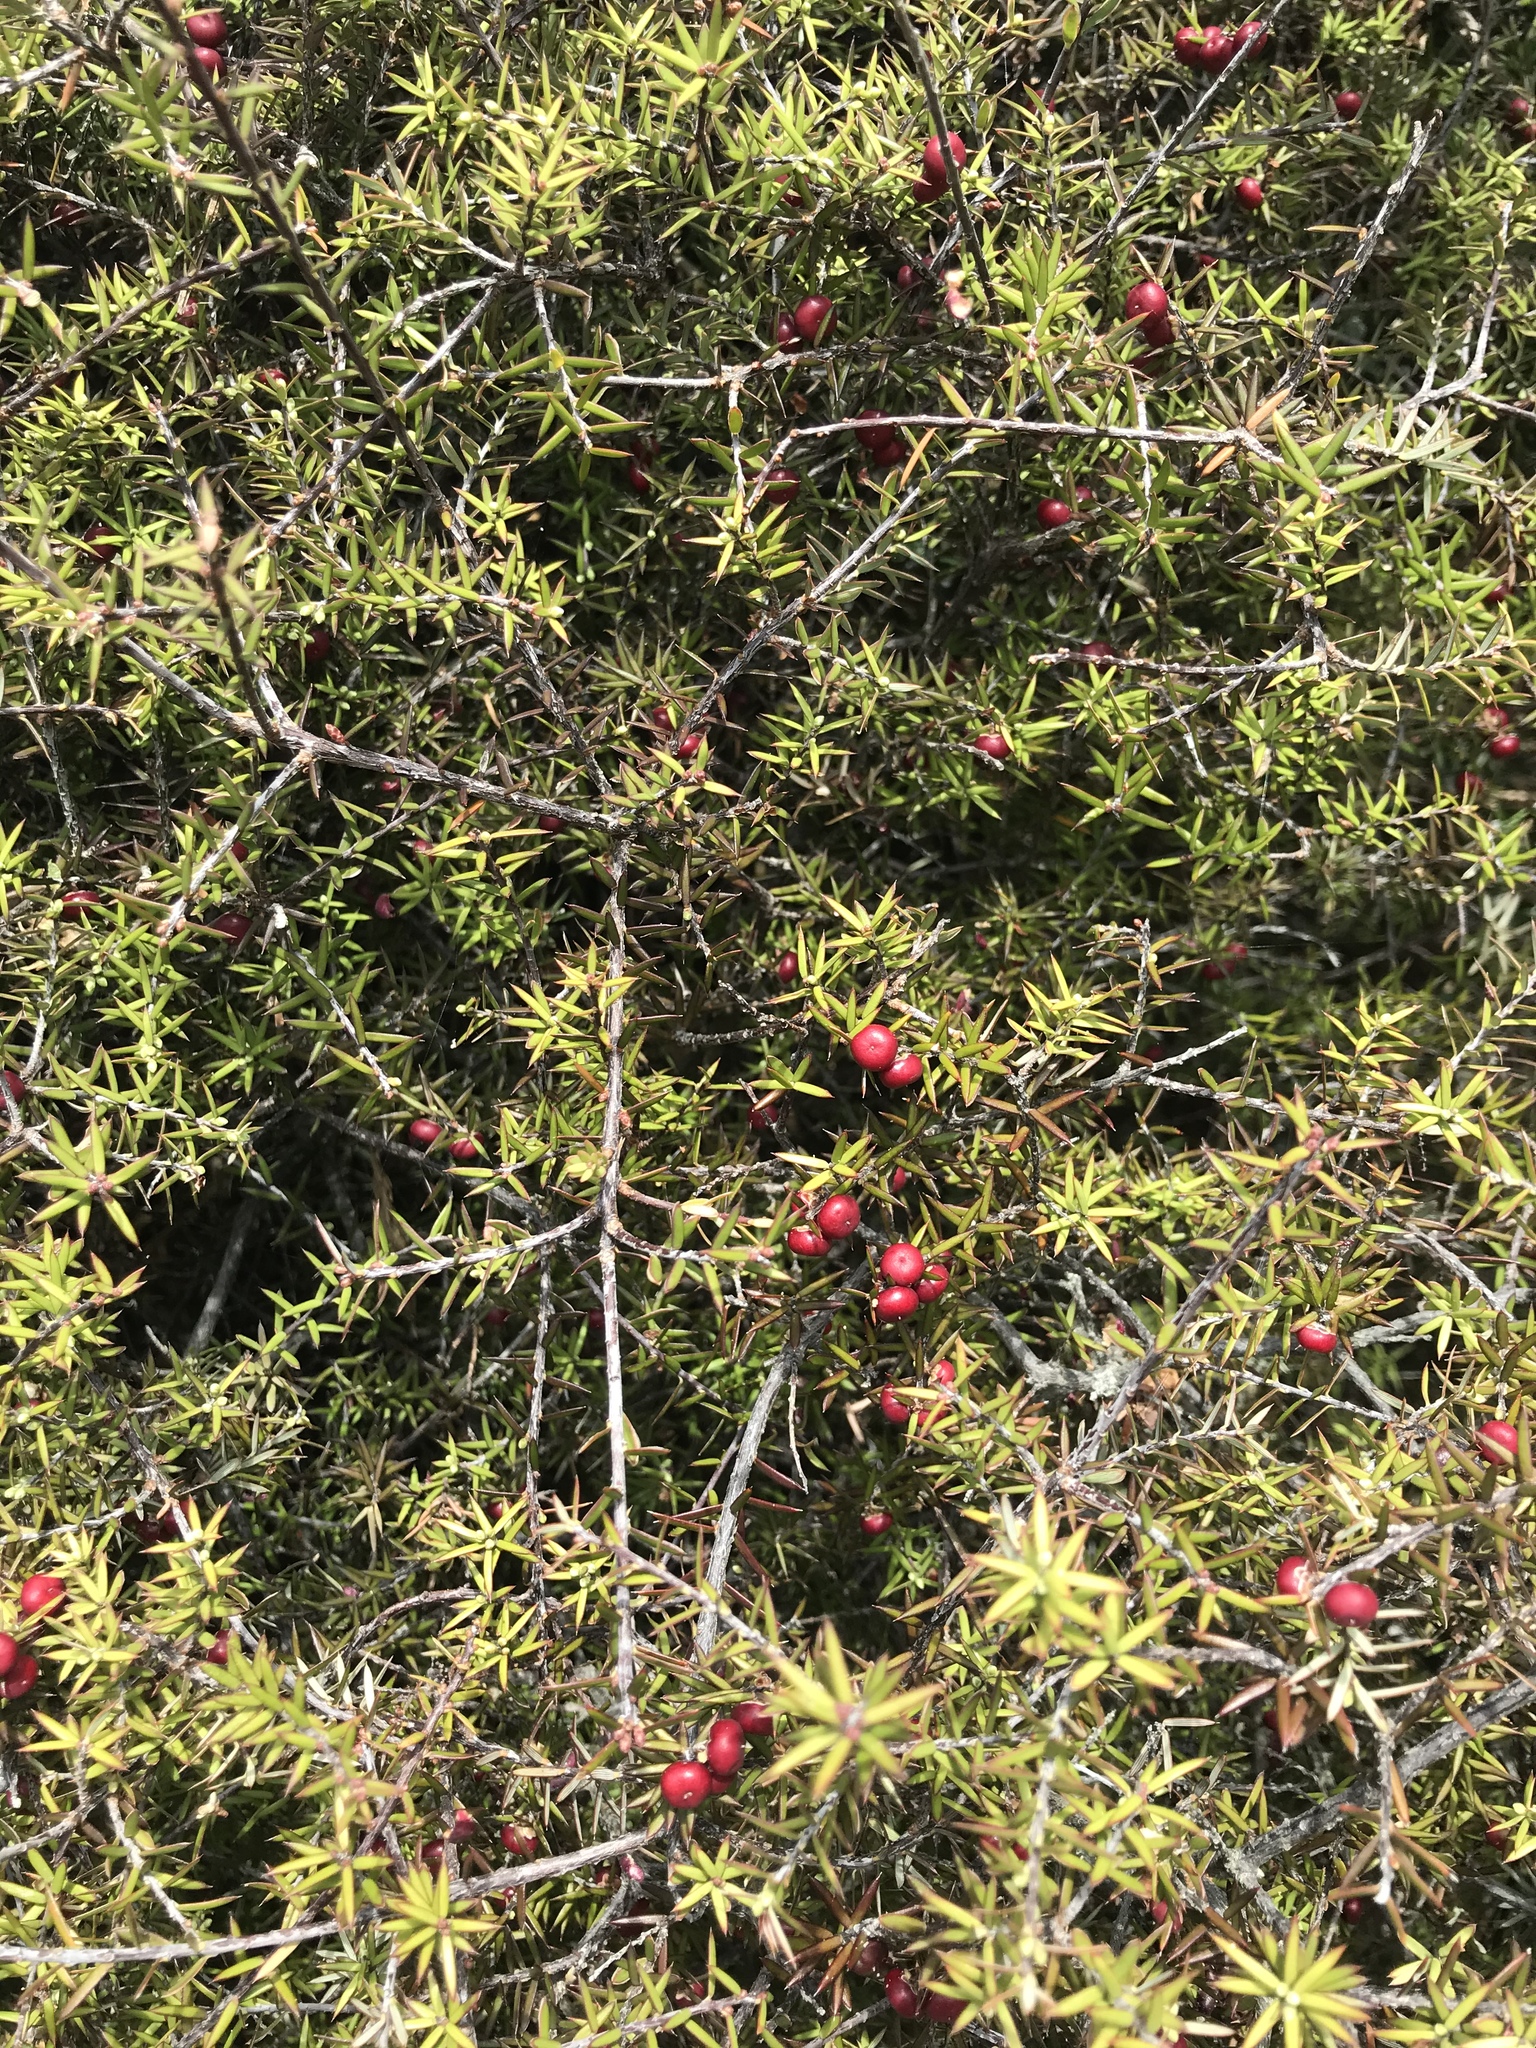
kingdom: Plantae
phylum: Tracheophyta
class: Magnoliopsida
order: Ericales
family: Ericaceae
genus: Leptecophylla
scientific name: Leptecophylla juniperina
